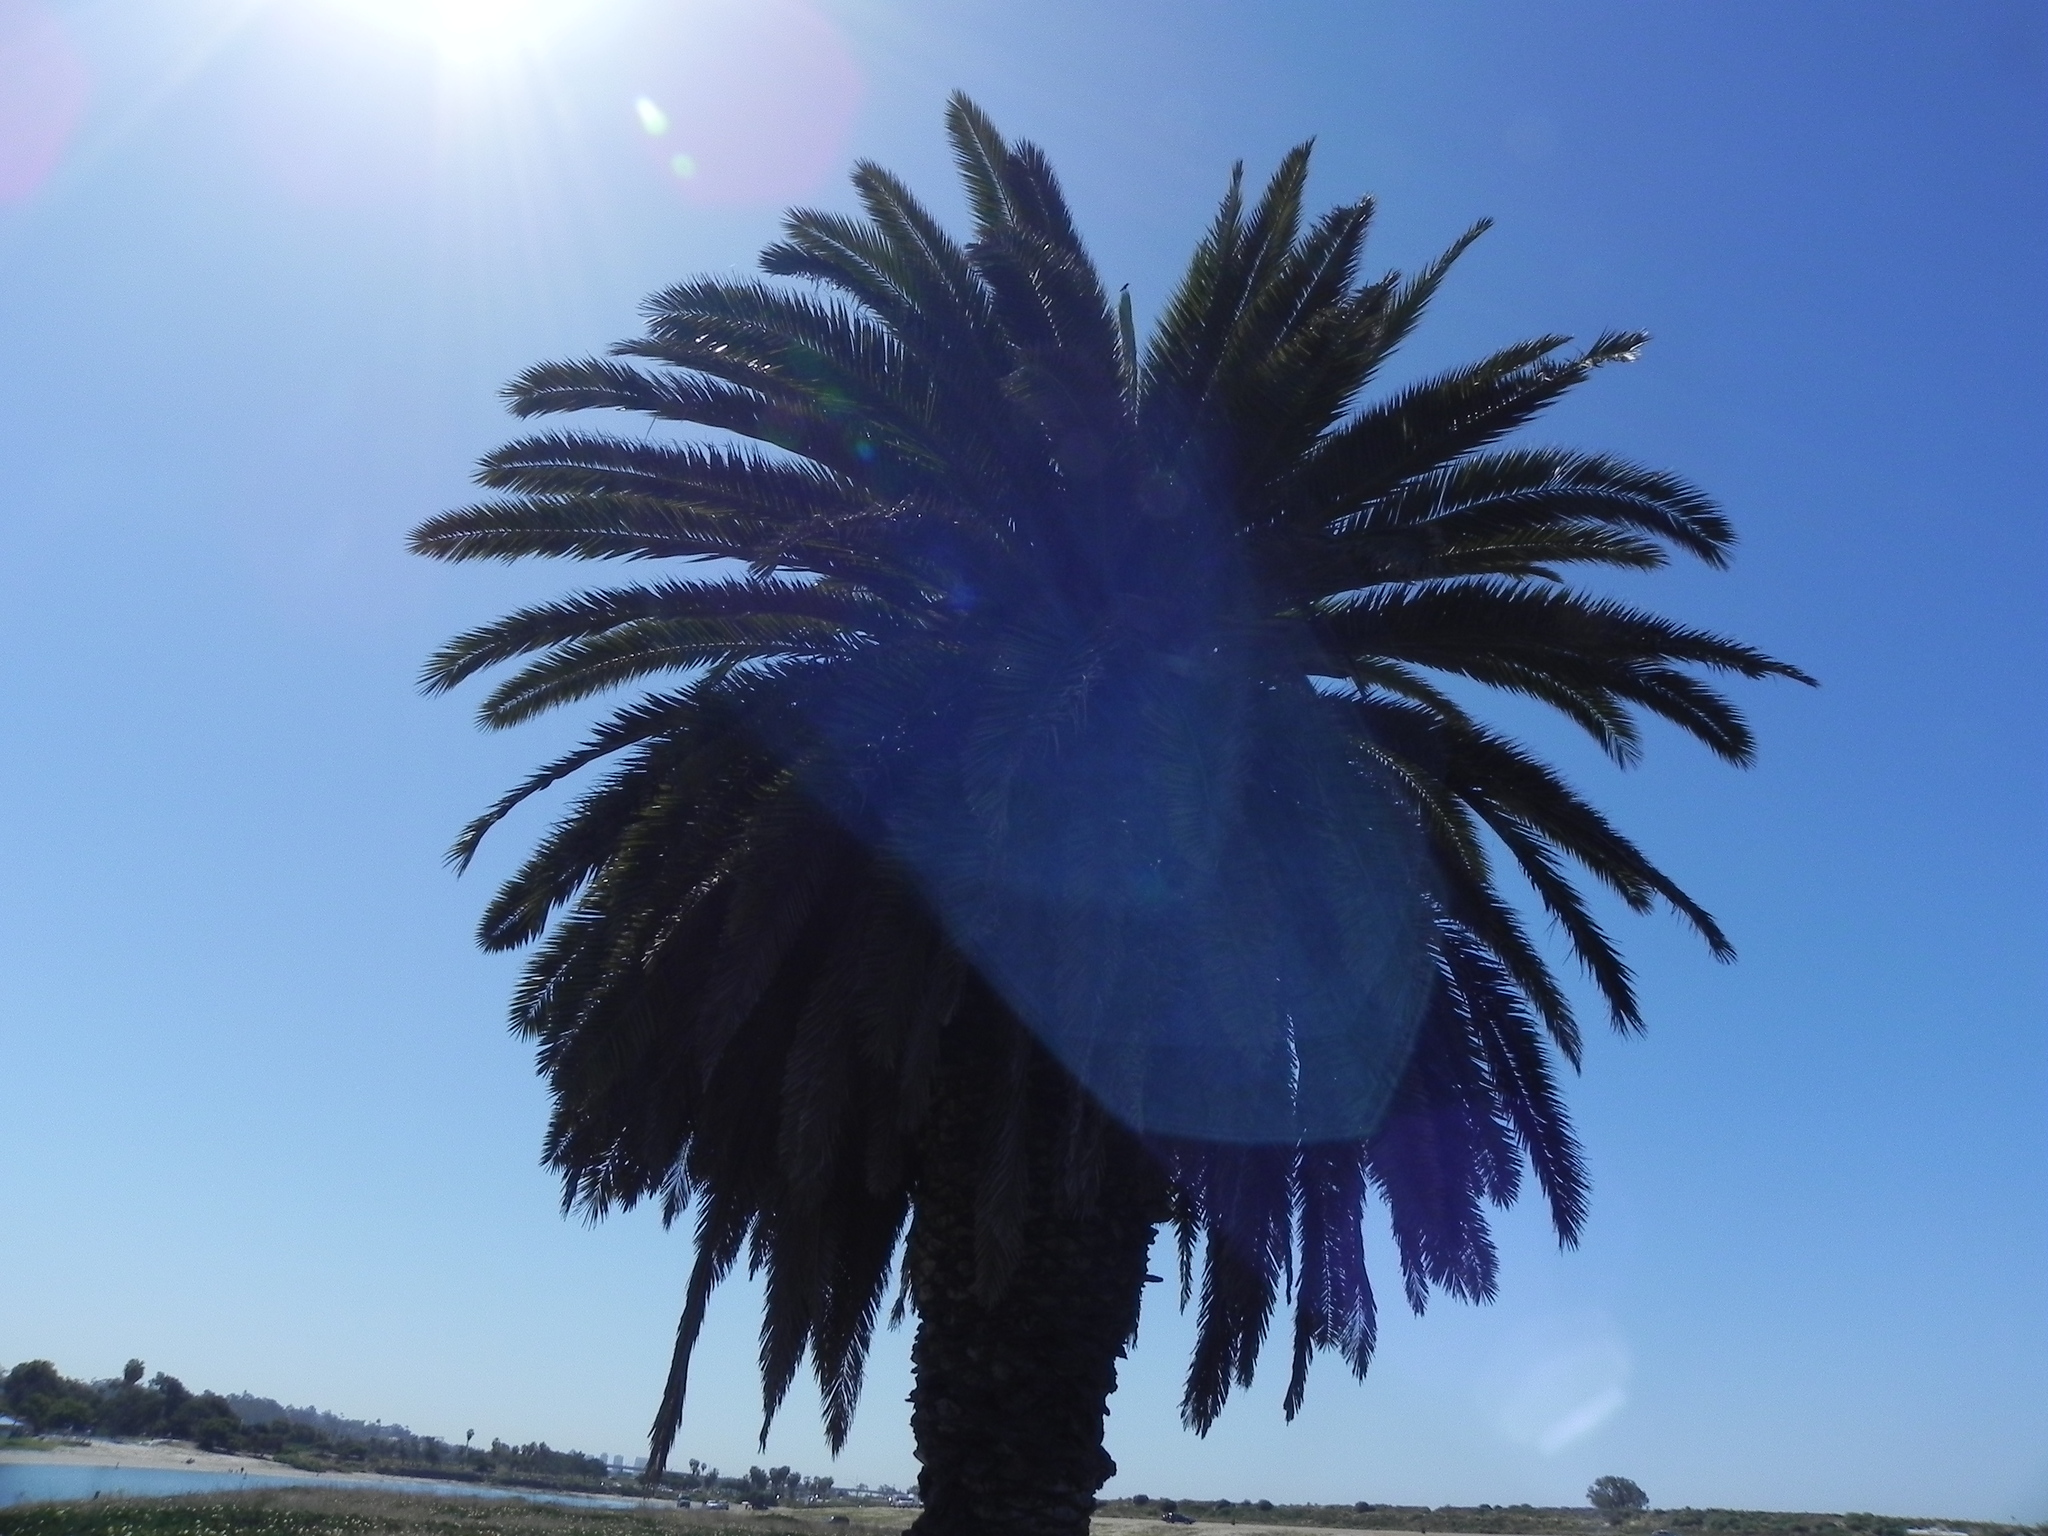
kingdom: Plantae
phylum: Tracheophyta
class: Liliopsida
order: Arecales
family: Arecaceae
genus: Phoenix
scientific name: Phoenix canariensis
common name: Canary island date palm
